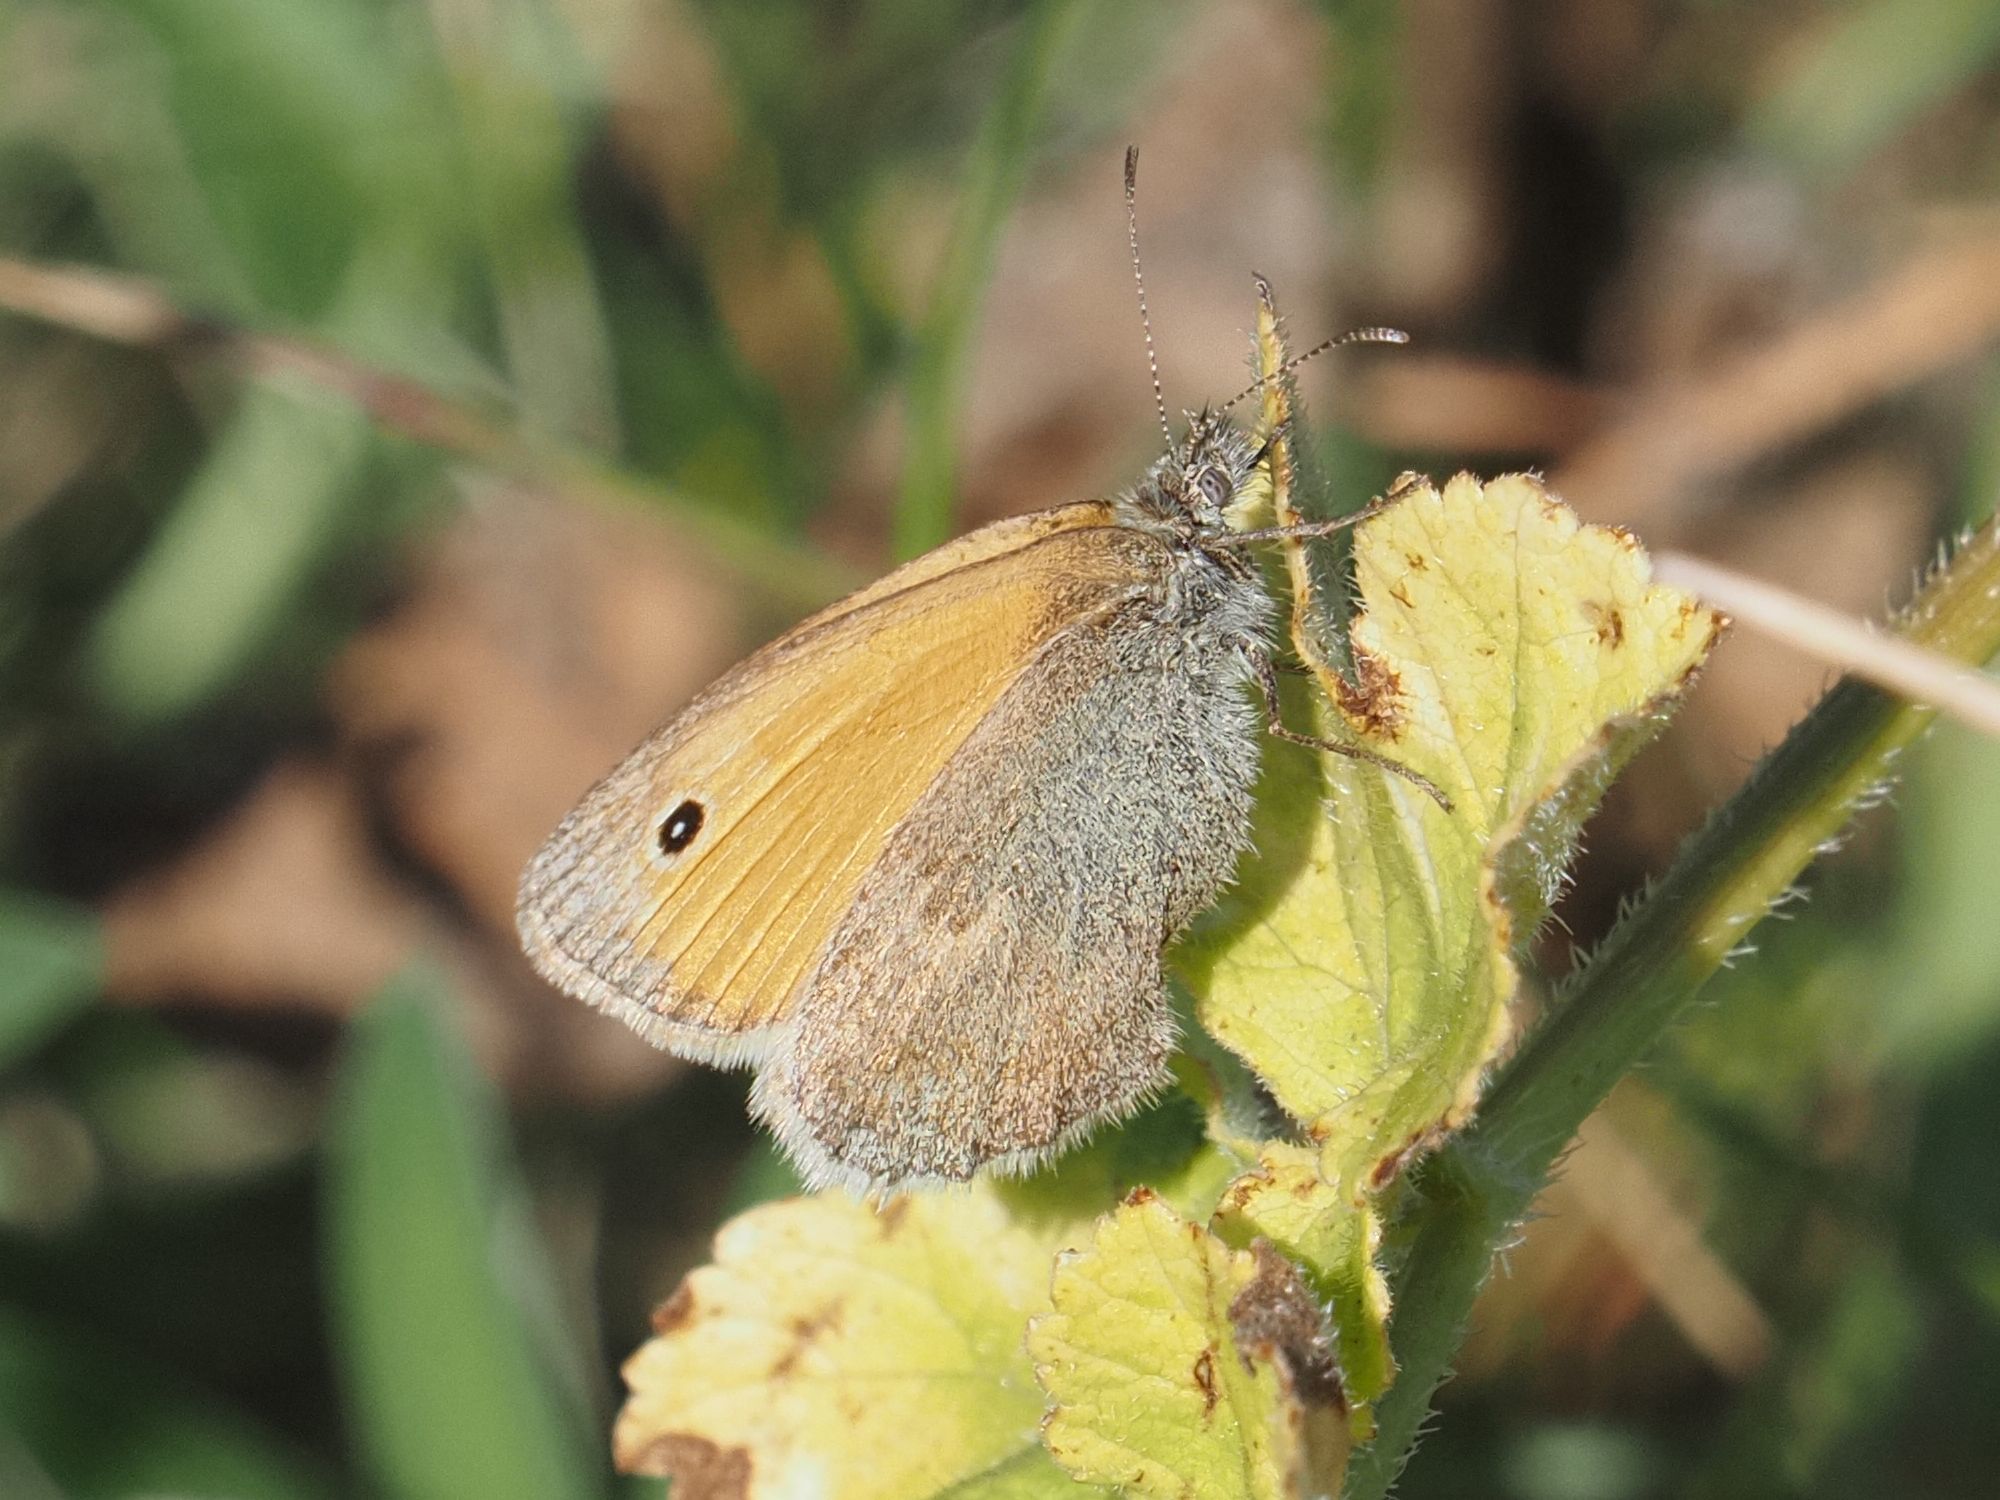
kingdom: Animalia
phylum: Arthropoda
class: Insecta
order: Lepidoptera
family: Nymphalidae
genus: Coenonympha
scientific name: Coenonympha pamphilus
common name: Small heath
